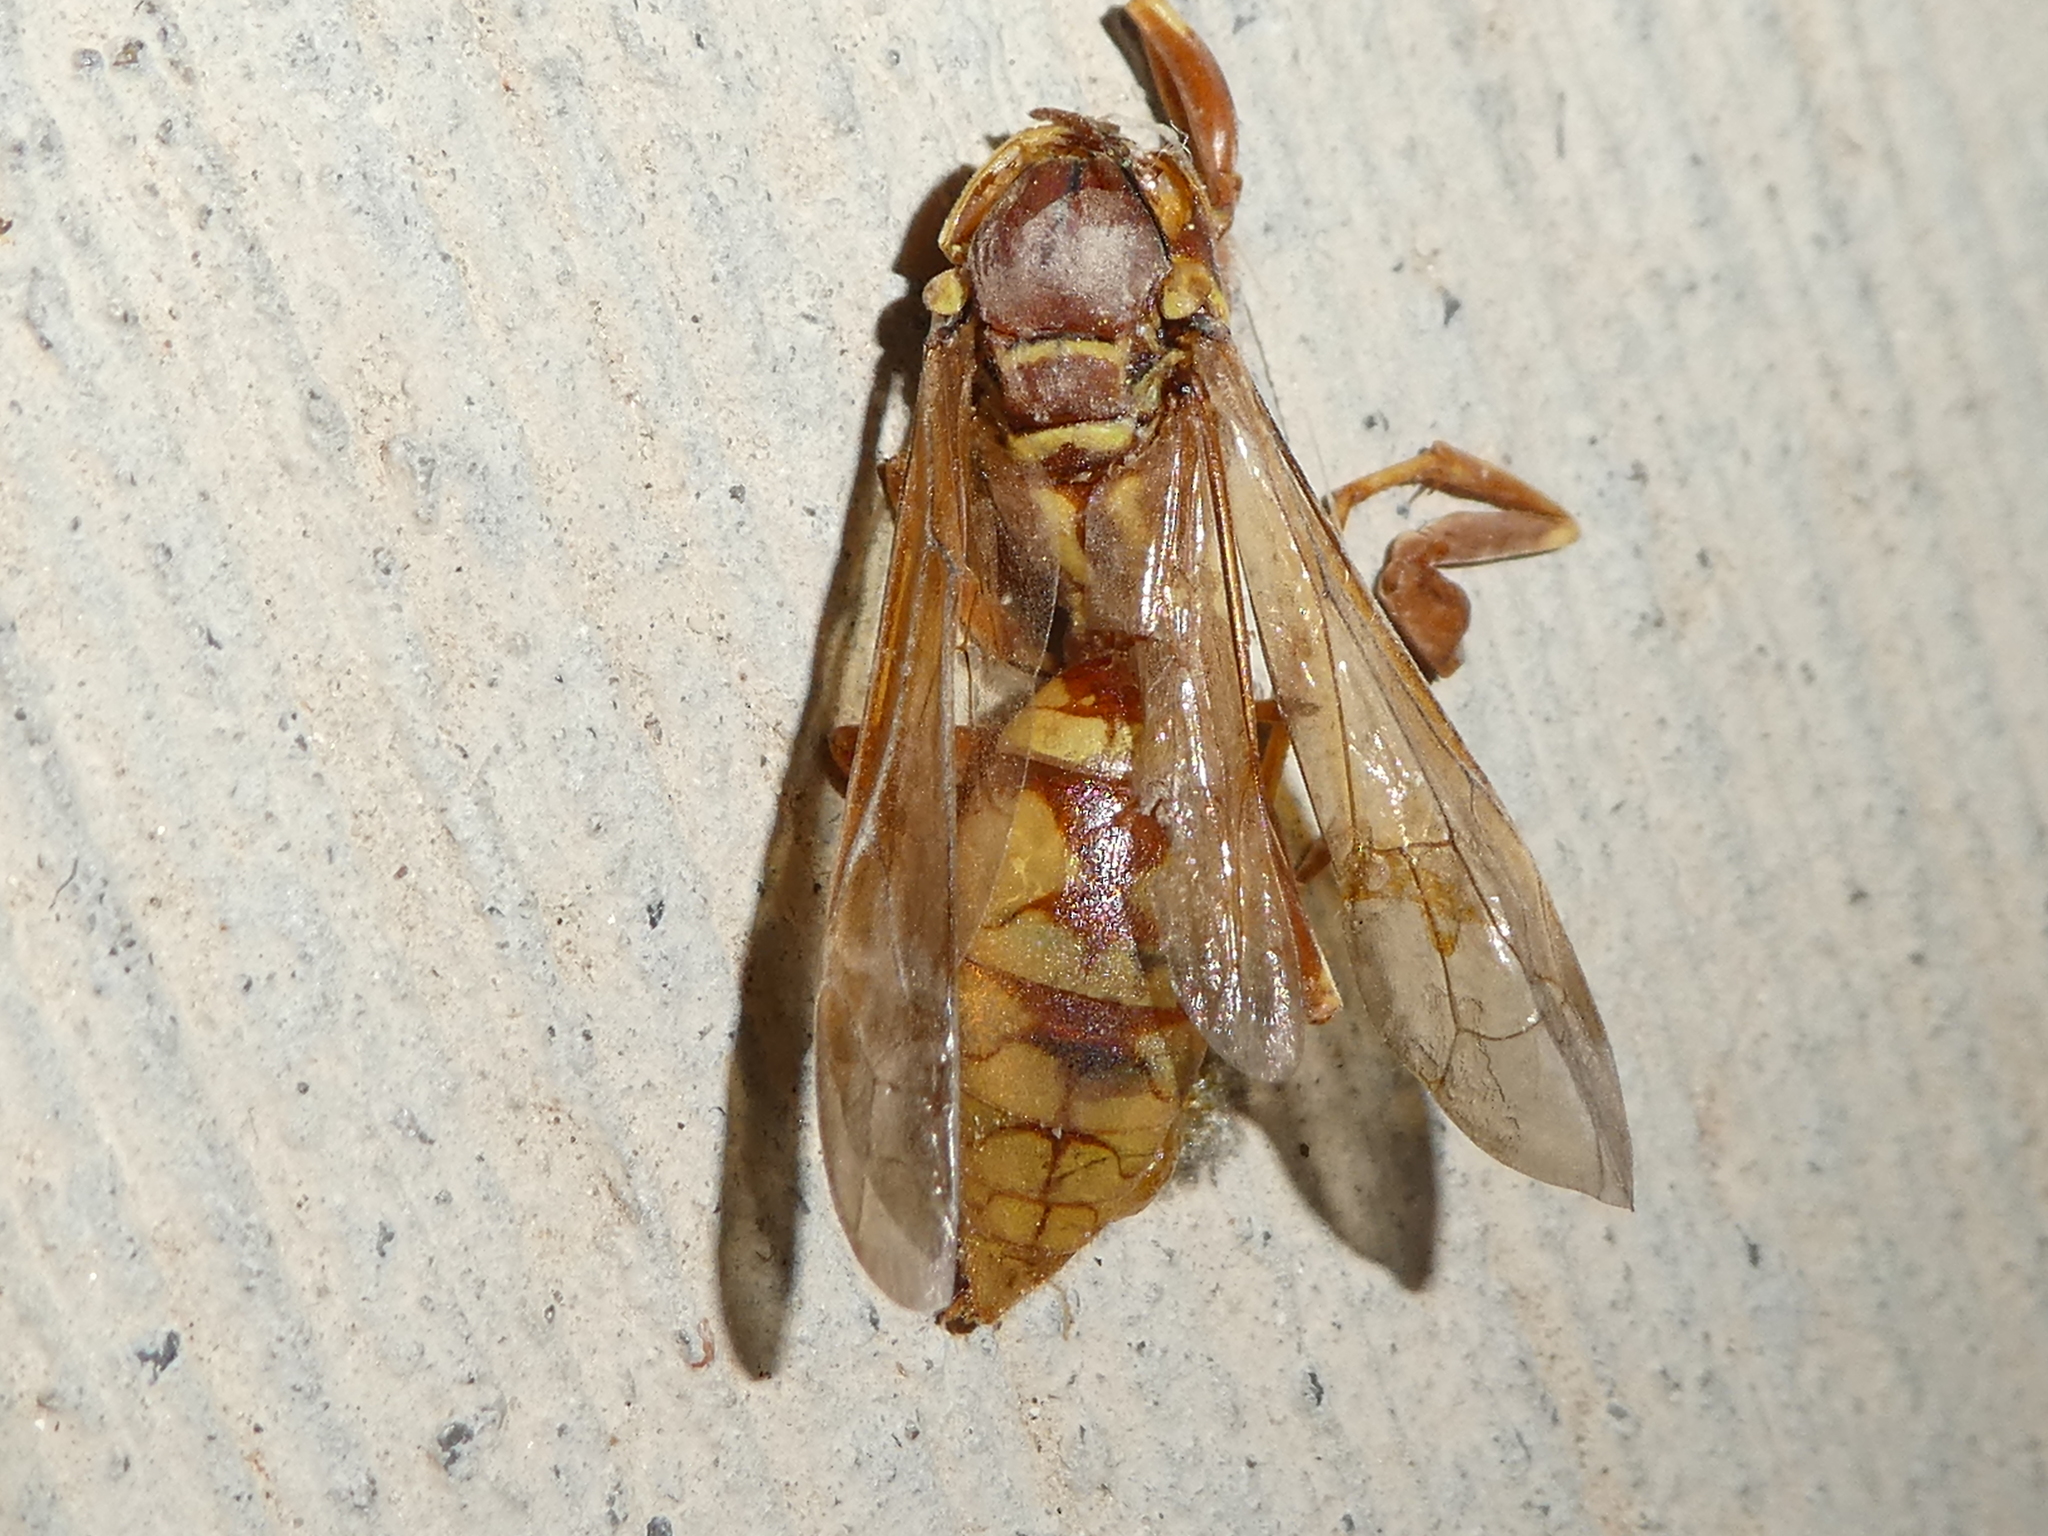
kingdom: Animalia
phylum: Arthropoda
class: Insecta
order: Hymenoptera
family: Eumenidae
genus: Polistes
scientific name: Polistes aurifer
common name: Paper wasp
